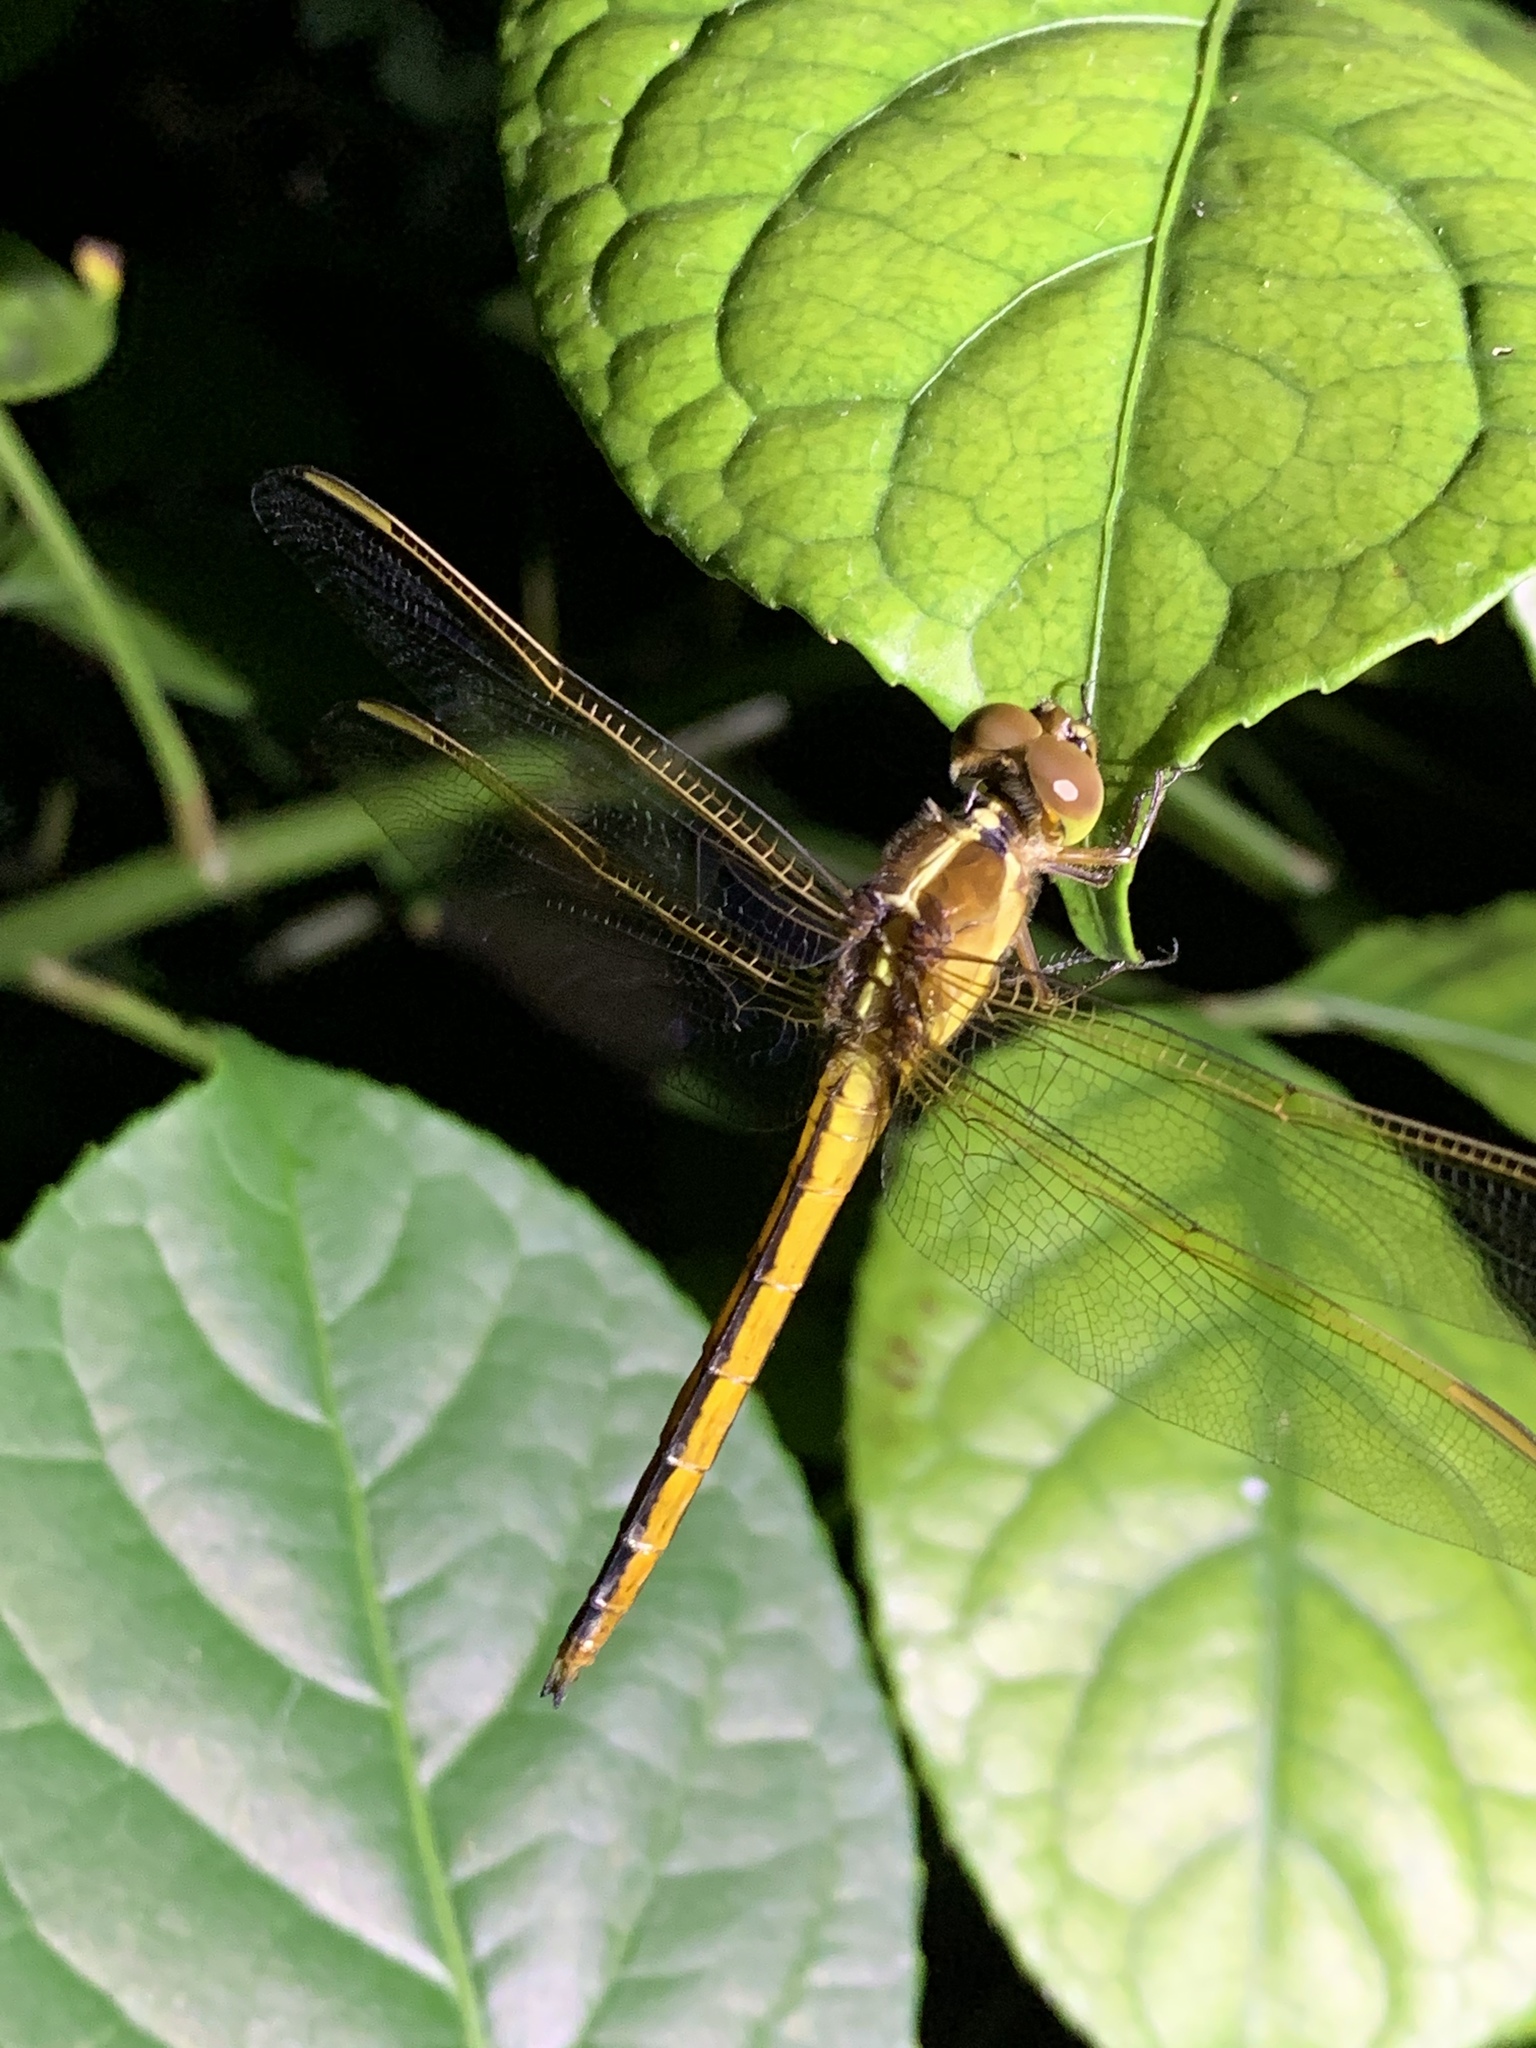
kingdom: Animalia
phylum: Arthropoda
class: Insecta
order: Odonata
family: Libellulidae
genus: Libellula
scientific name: Libellula needhami
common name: Needham's skimmer
